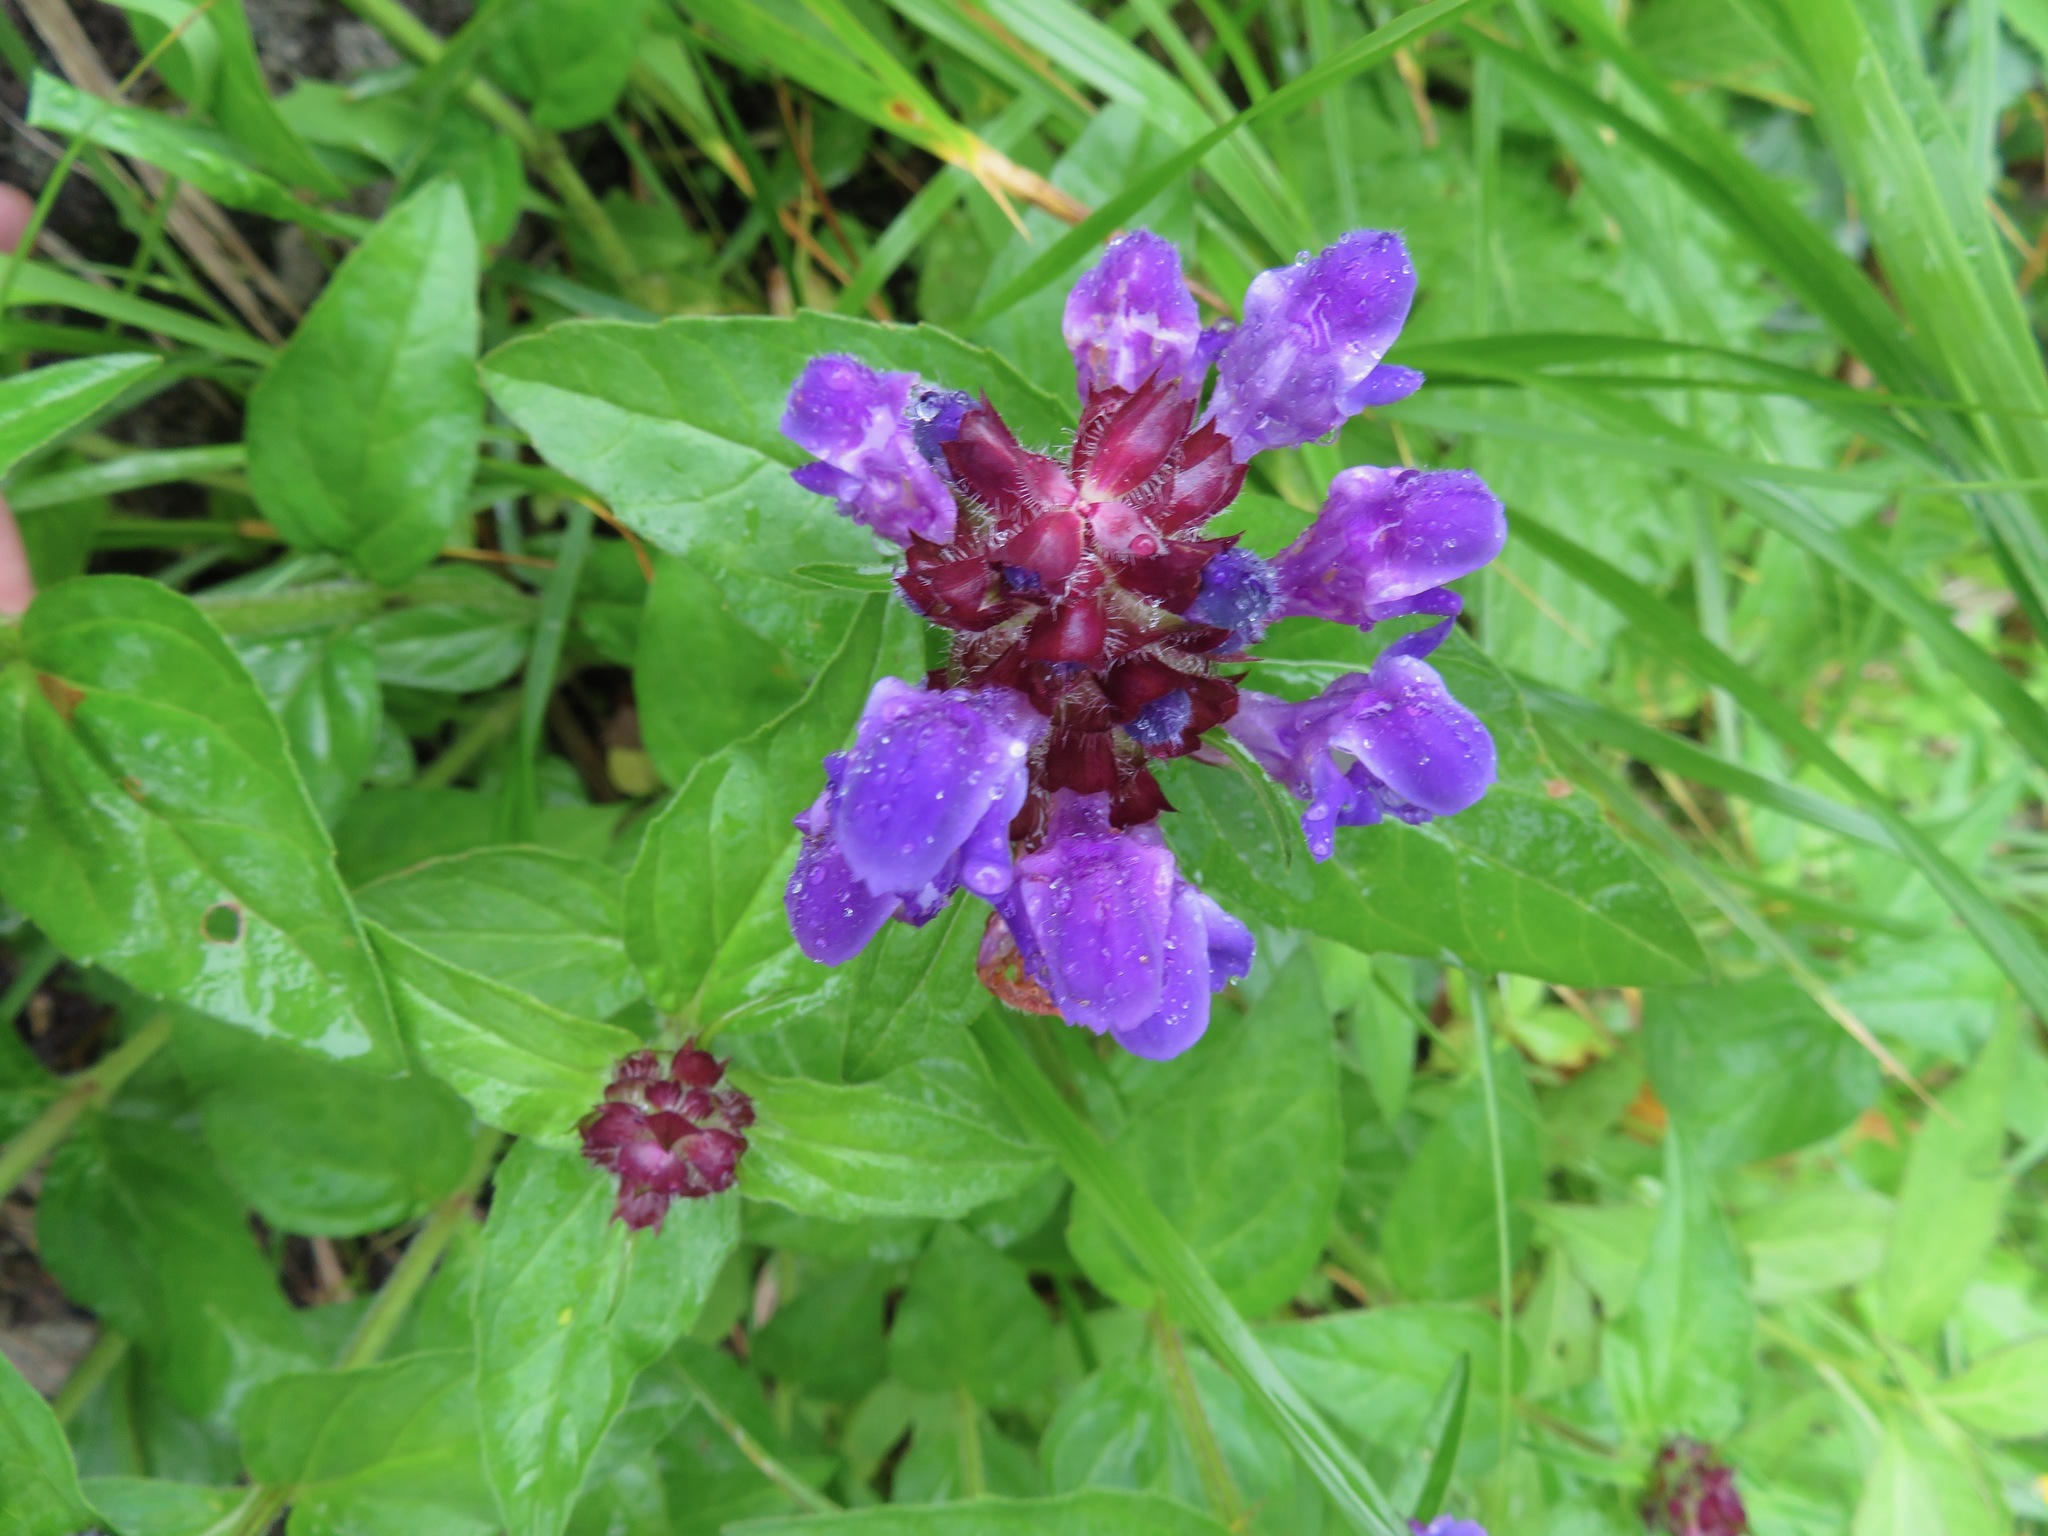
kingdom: Plantae
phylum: Tracheophyta
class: Magnoliopsida
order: Lamiales
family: Lamiaceae
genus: Prunella
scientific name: Prunella prunelliformis
